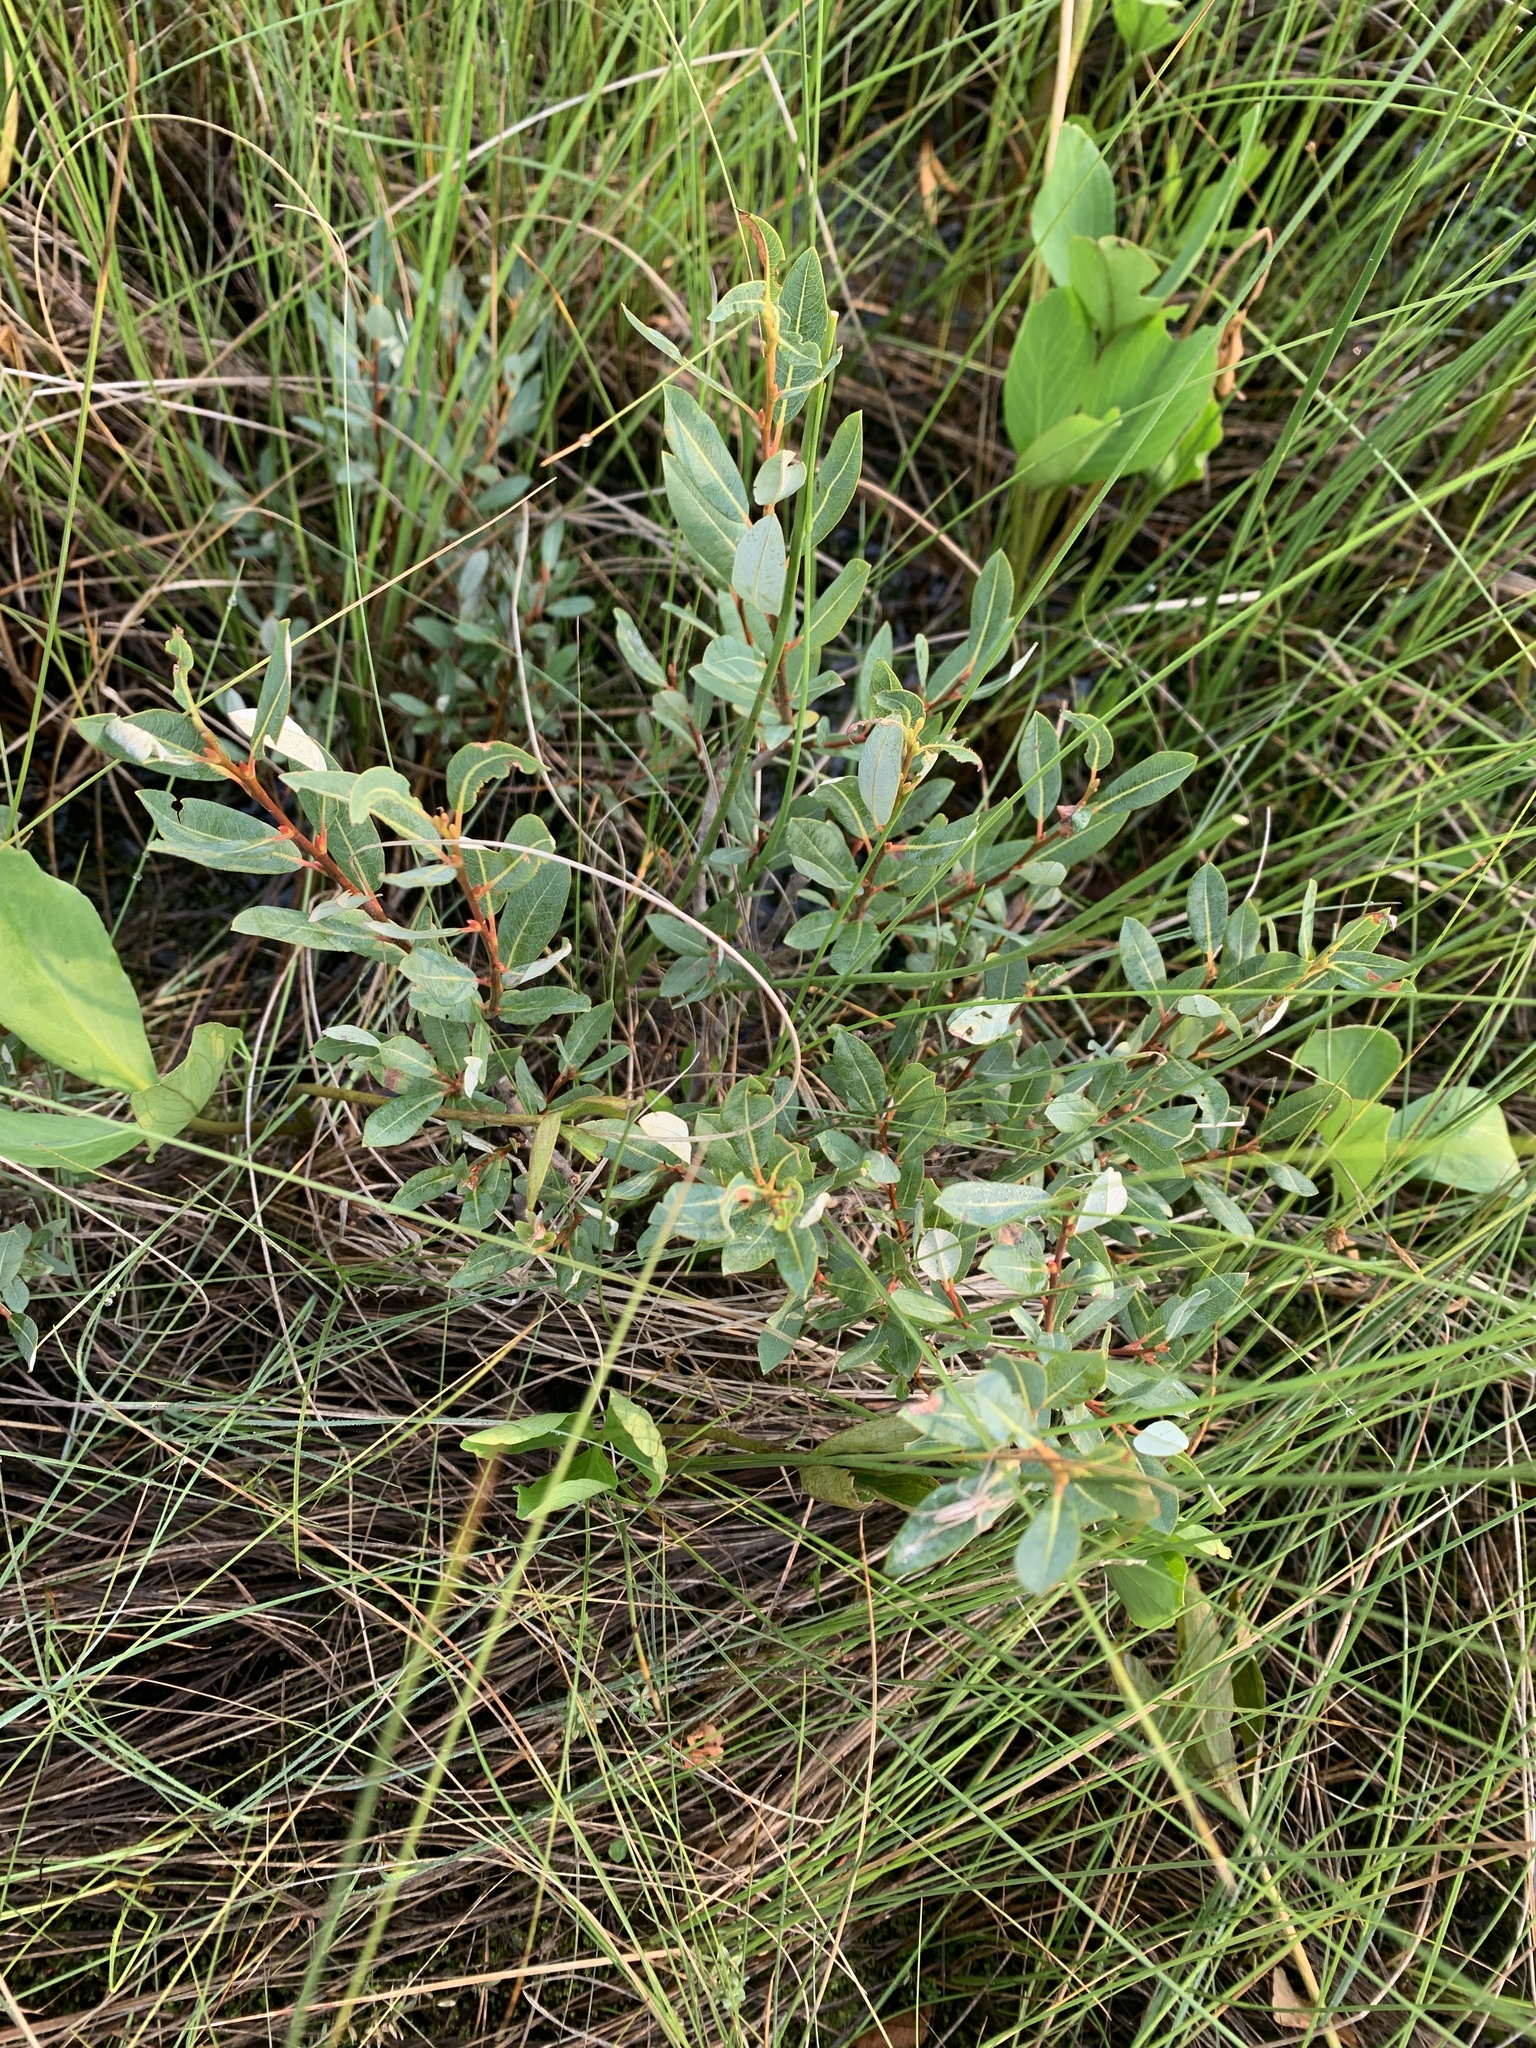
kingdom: Plantae
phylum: Tracheophyta
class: Magnoliopsida
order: Malpighiales
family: Salicaceae
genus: Salix
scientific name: Salix pedicellaris
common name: Bog willow
